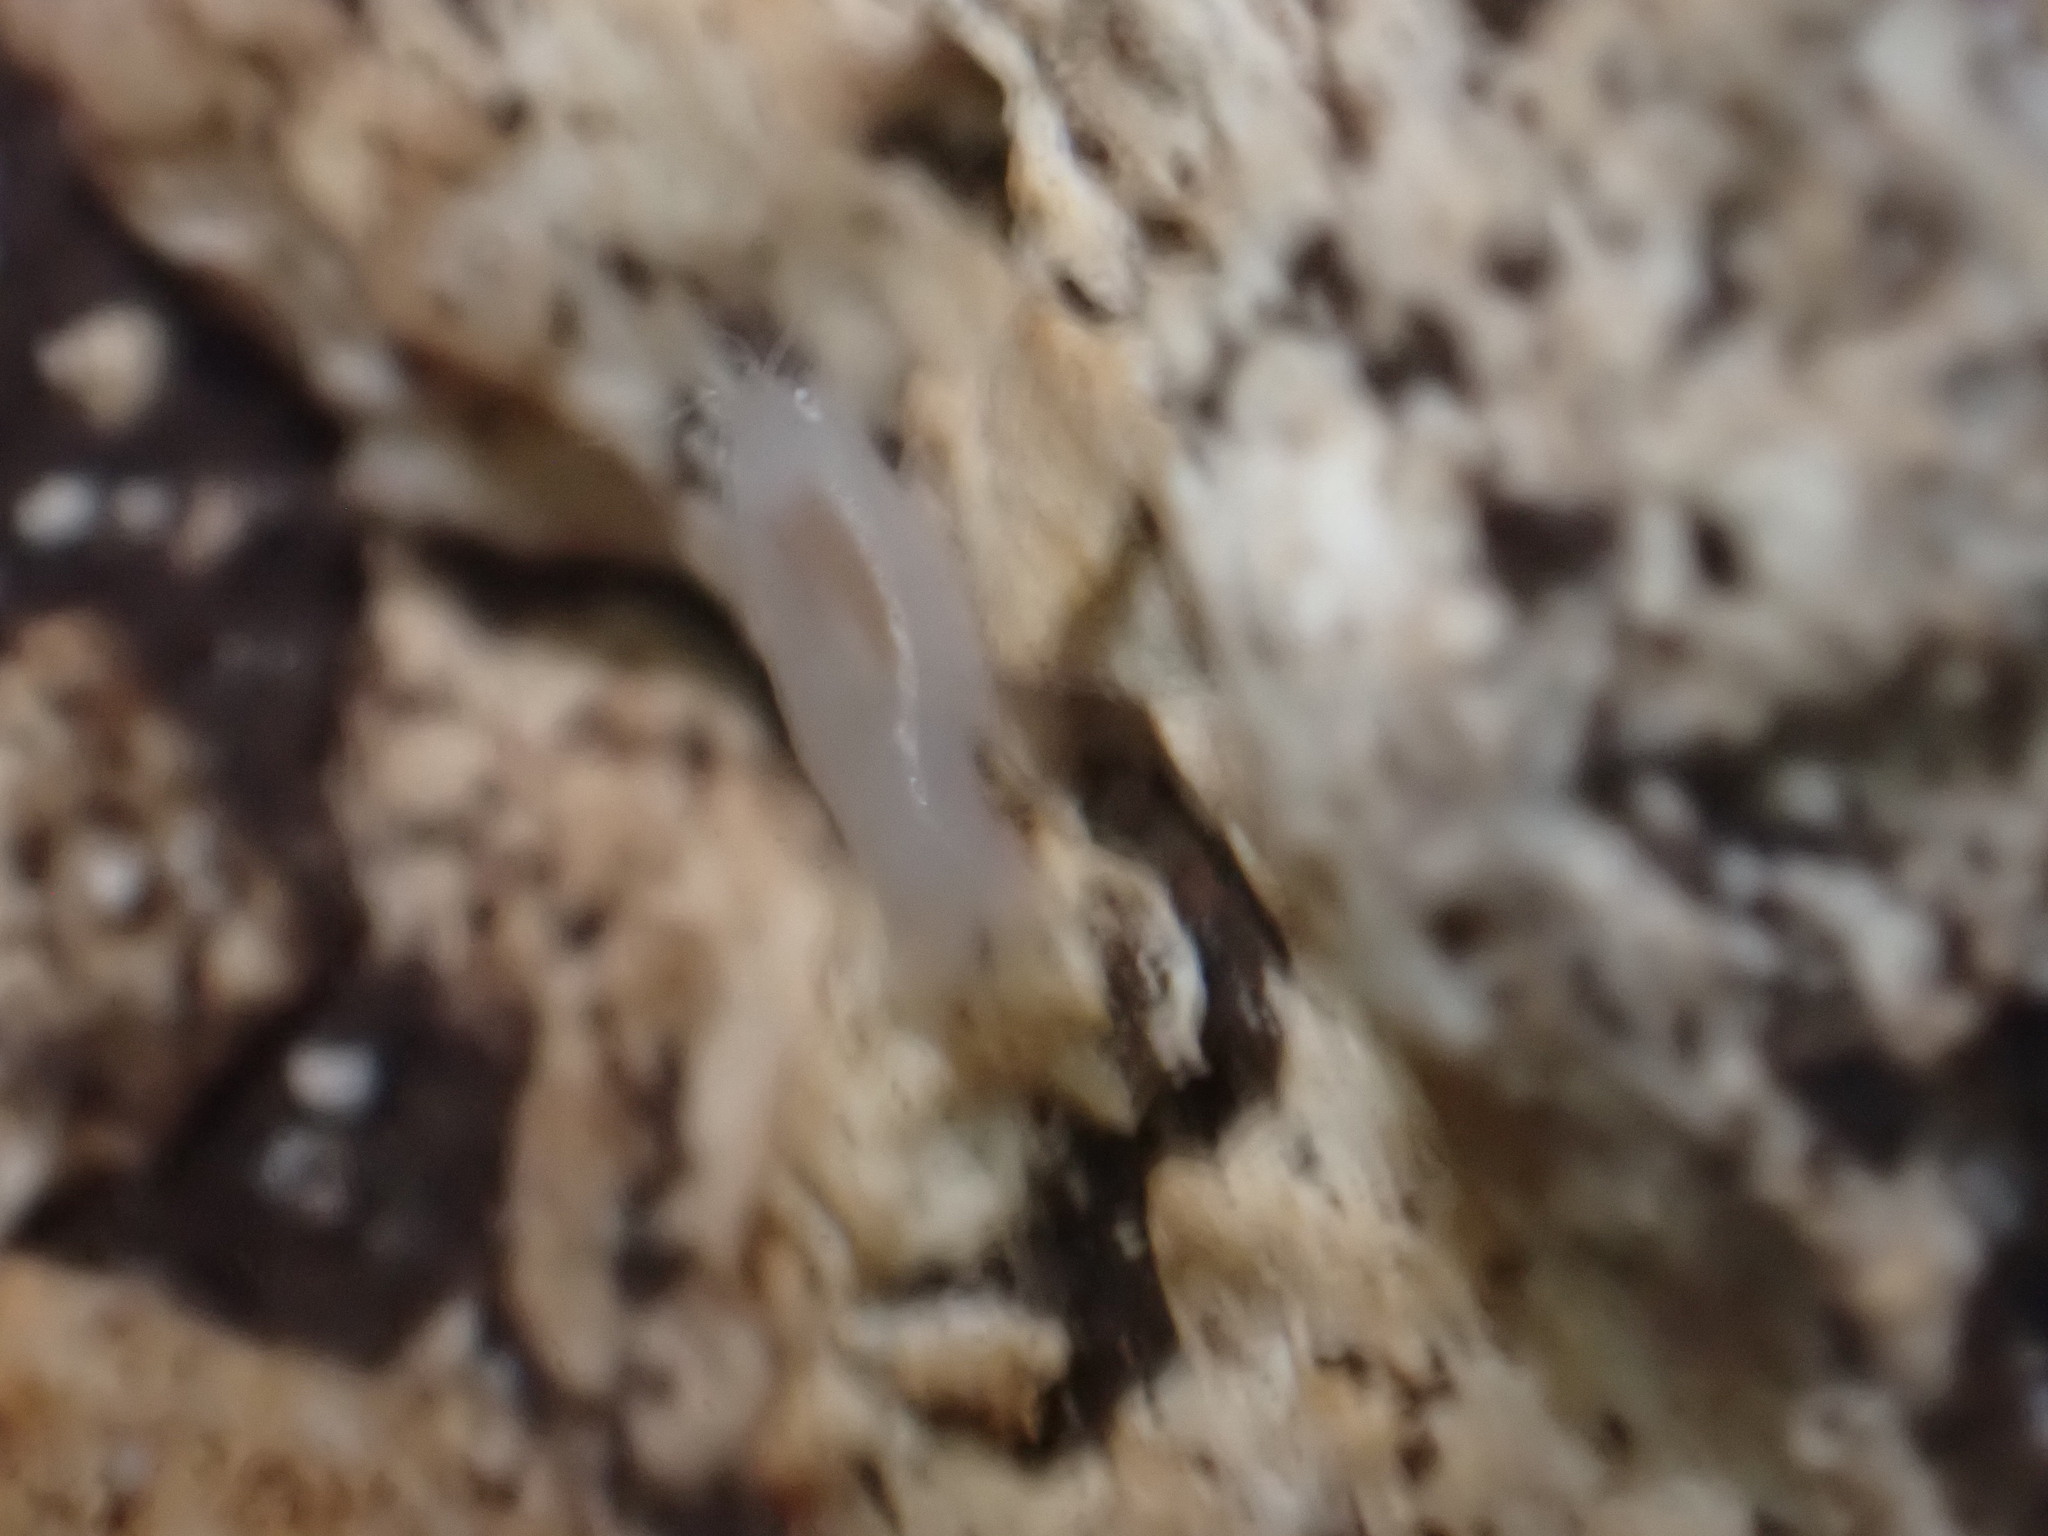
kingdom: Animalia
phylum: Arthropoda
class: Malacostraca
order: Isopoda
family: Cirolanidae
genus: Cirolana
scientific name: Cirolana crenata
